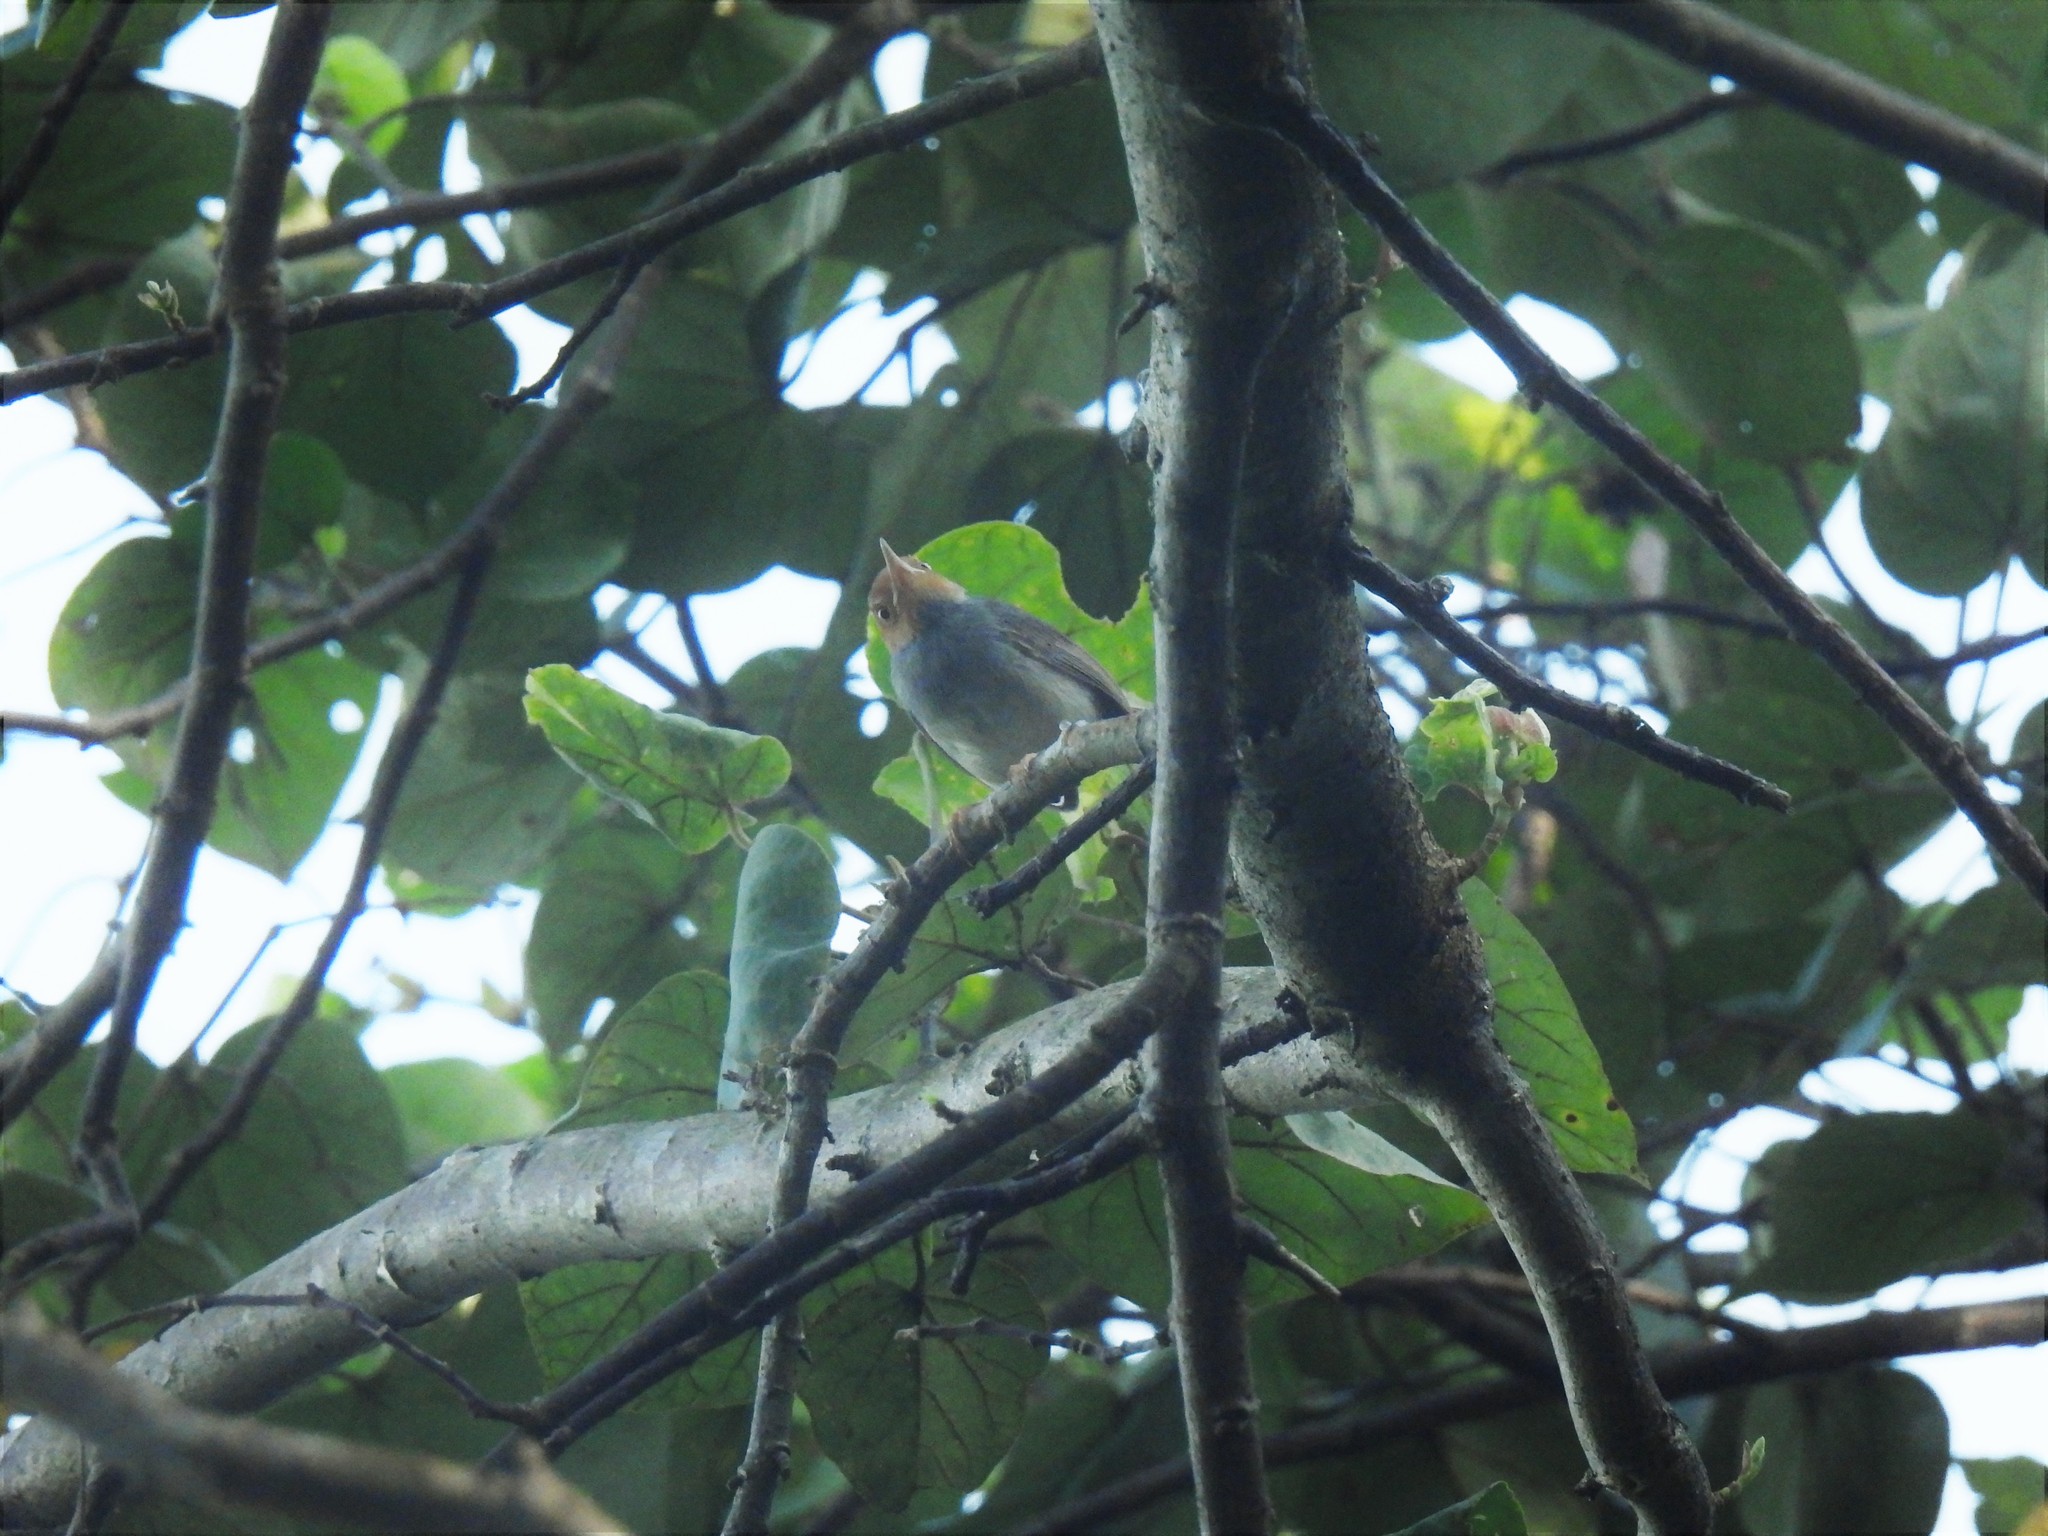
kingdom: Animalia
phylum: Chordata
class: Aves
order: Passeriformes
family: Cisticolidae
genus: Orthotomus
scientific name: Orthotomus ruficeps
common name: Ashy tailorbird
